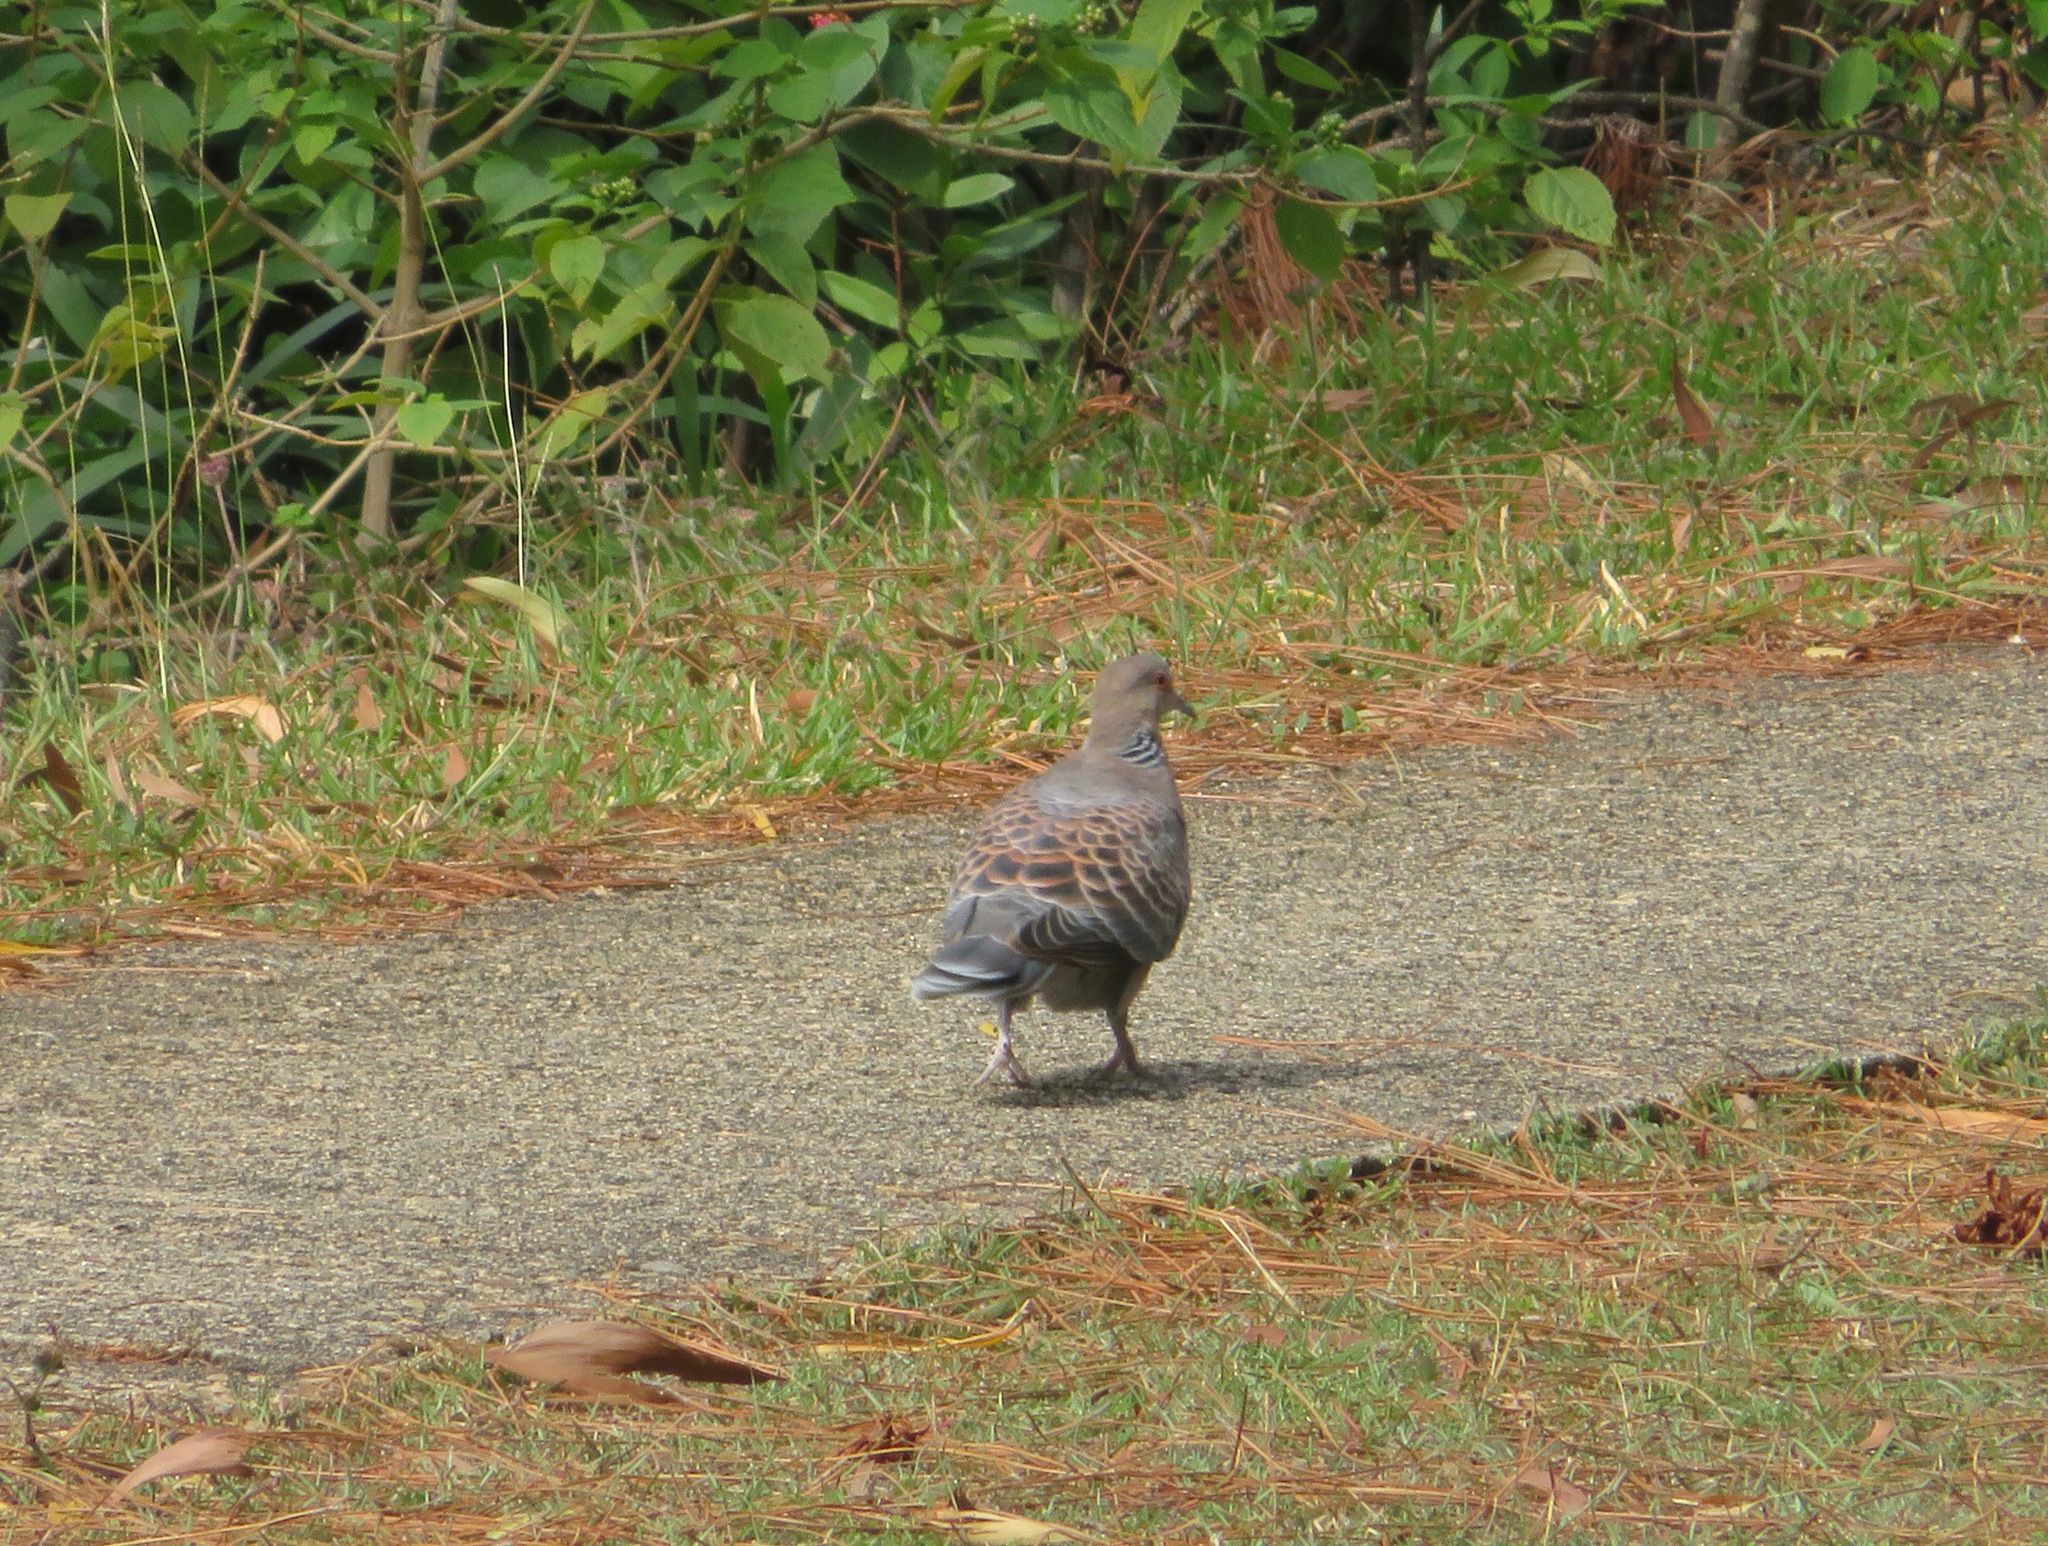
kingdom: Animalia
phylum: Chordata
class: Aves
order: Columbiformes
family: Columbidae
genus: Streptopelia
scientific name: Streptopelia orientalis
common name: Oriental turtle dove
